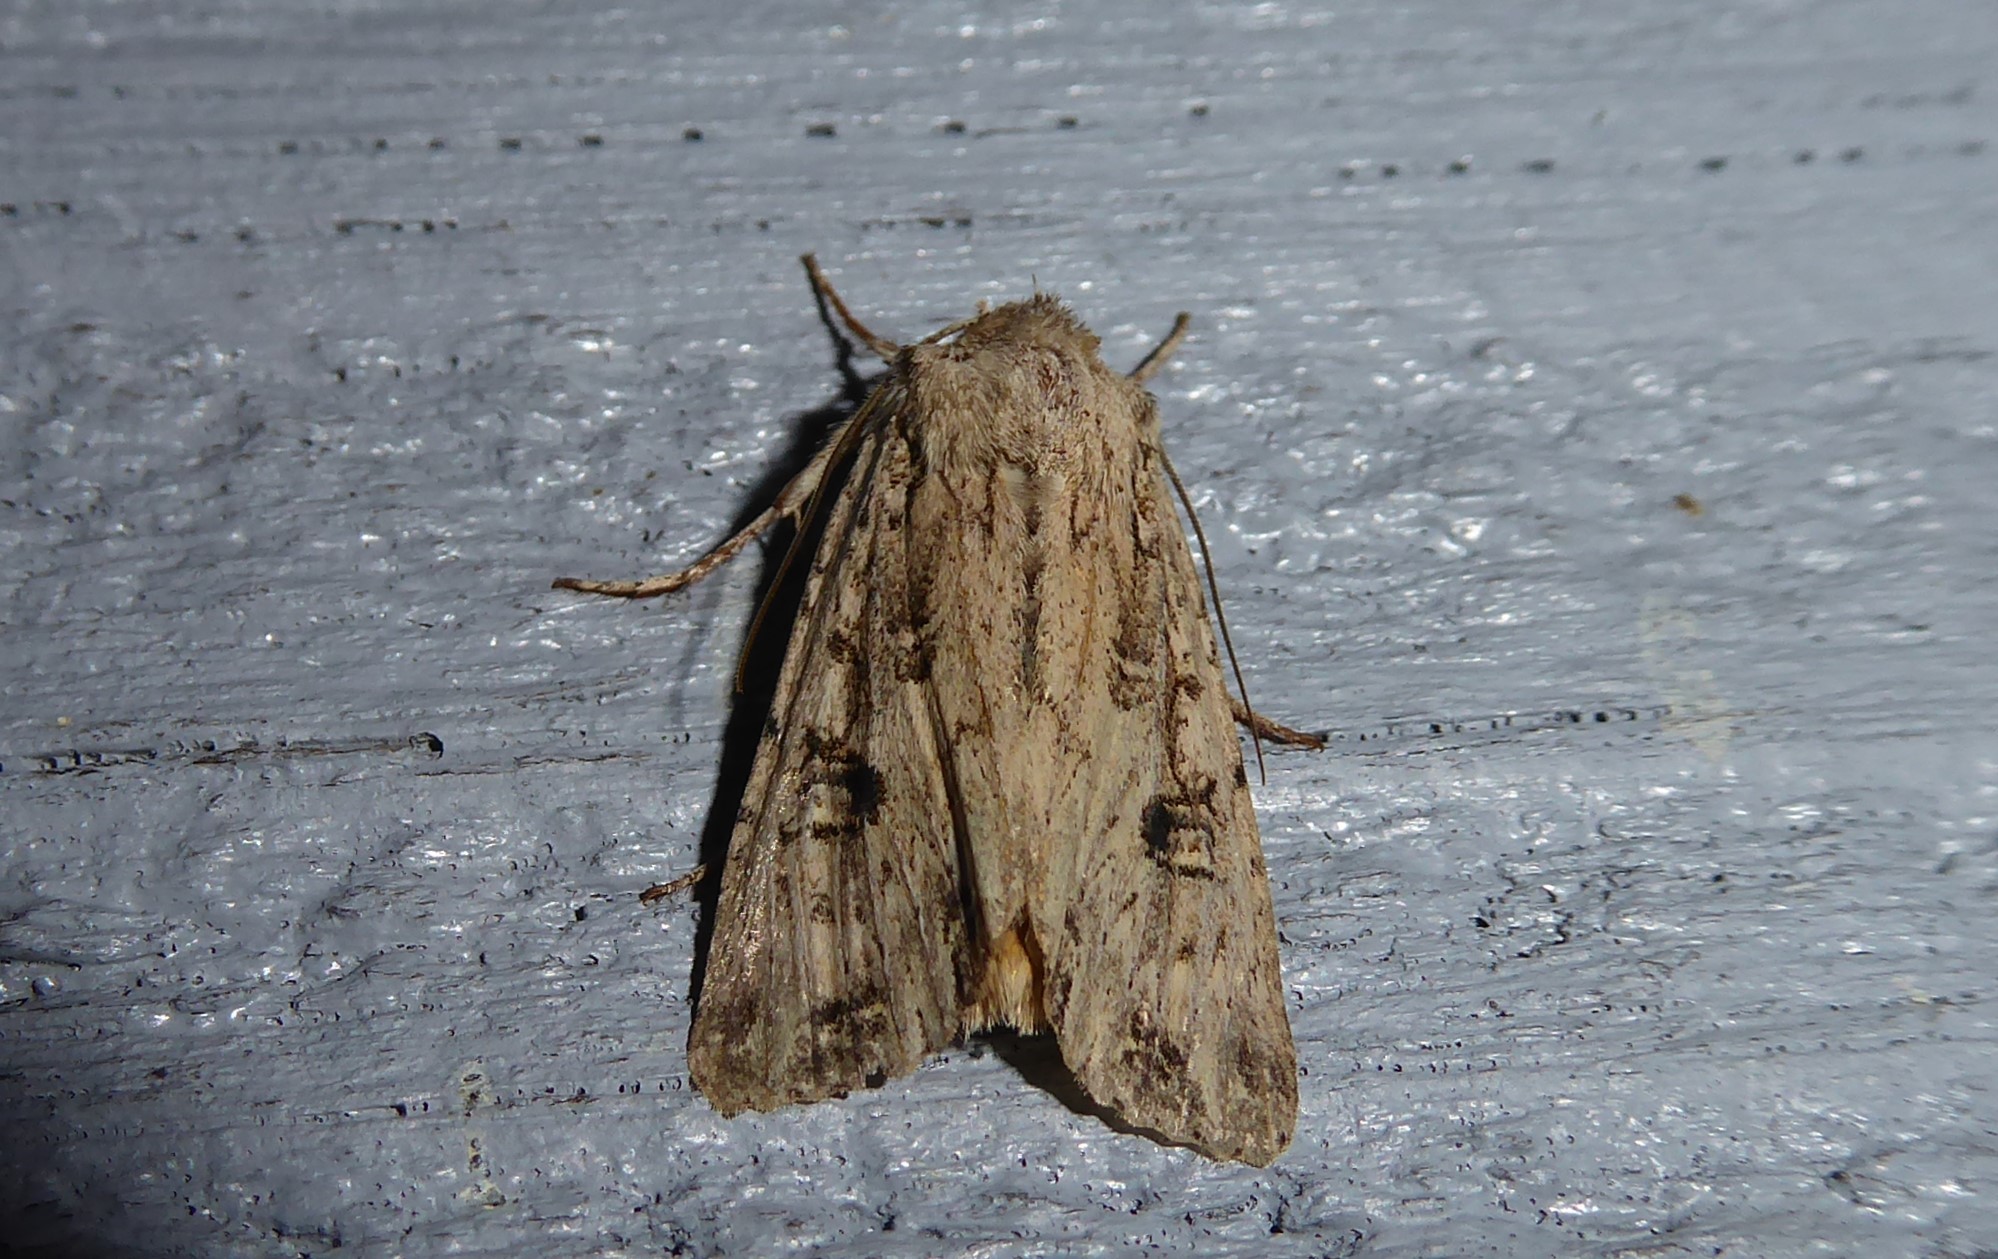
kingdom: Animalia
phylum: Arthropoda
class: Insecta
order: Lepidoptera
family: Noctuidae
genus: Ichneutica
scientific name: Ichneutica lignana
